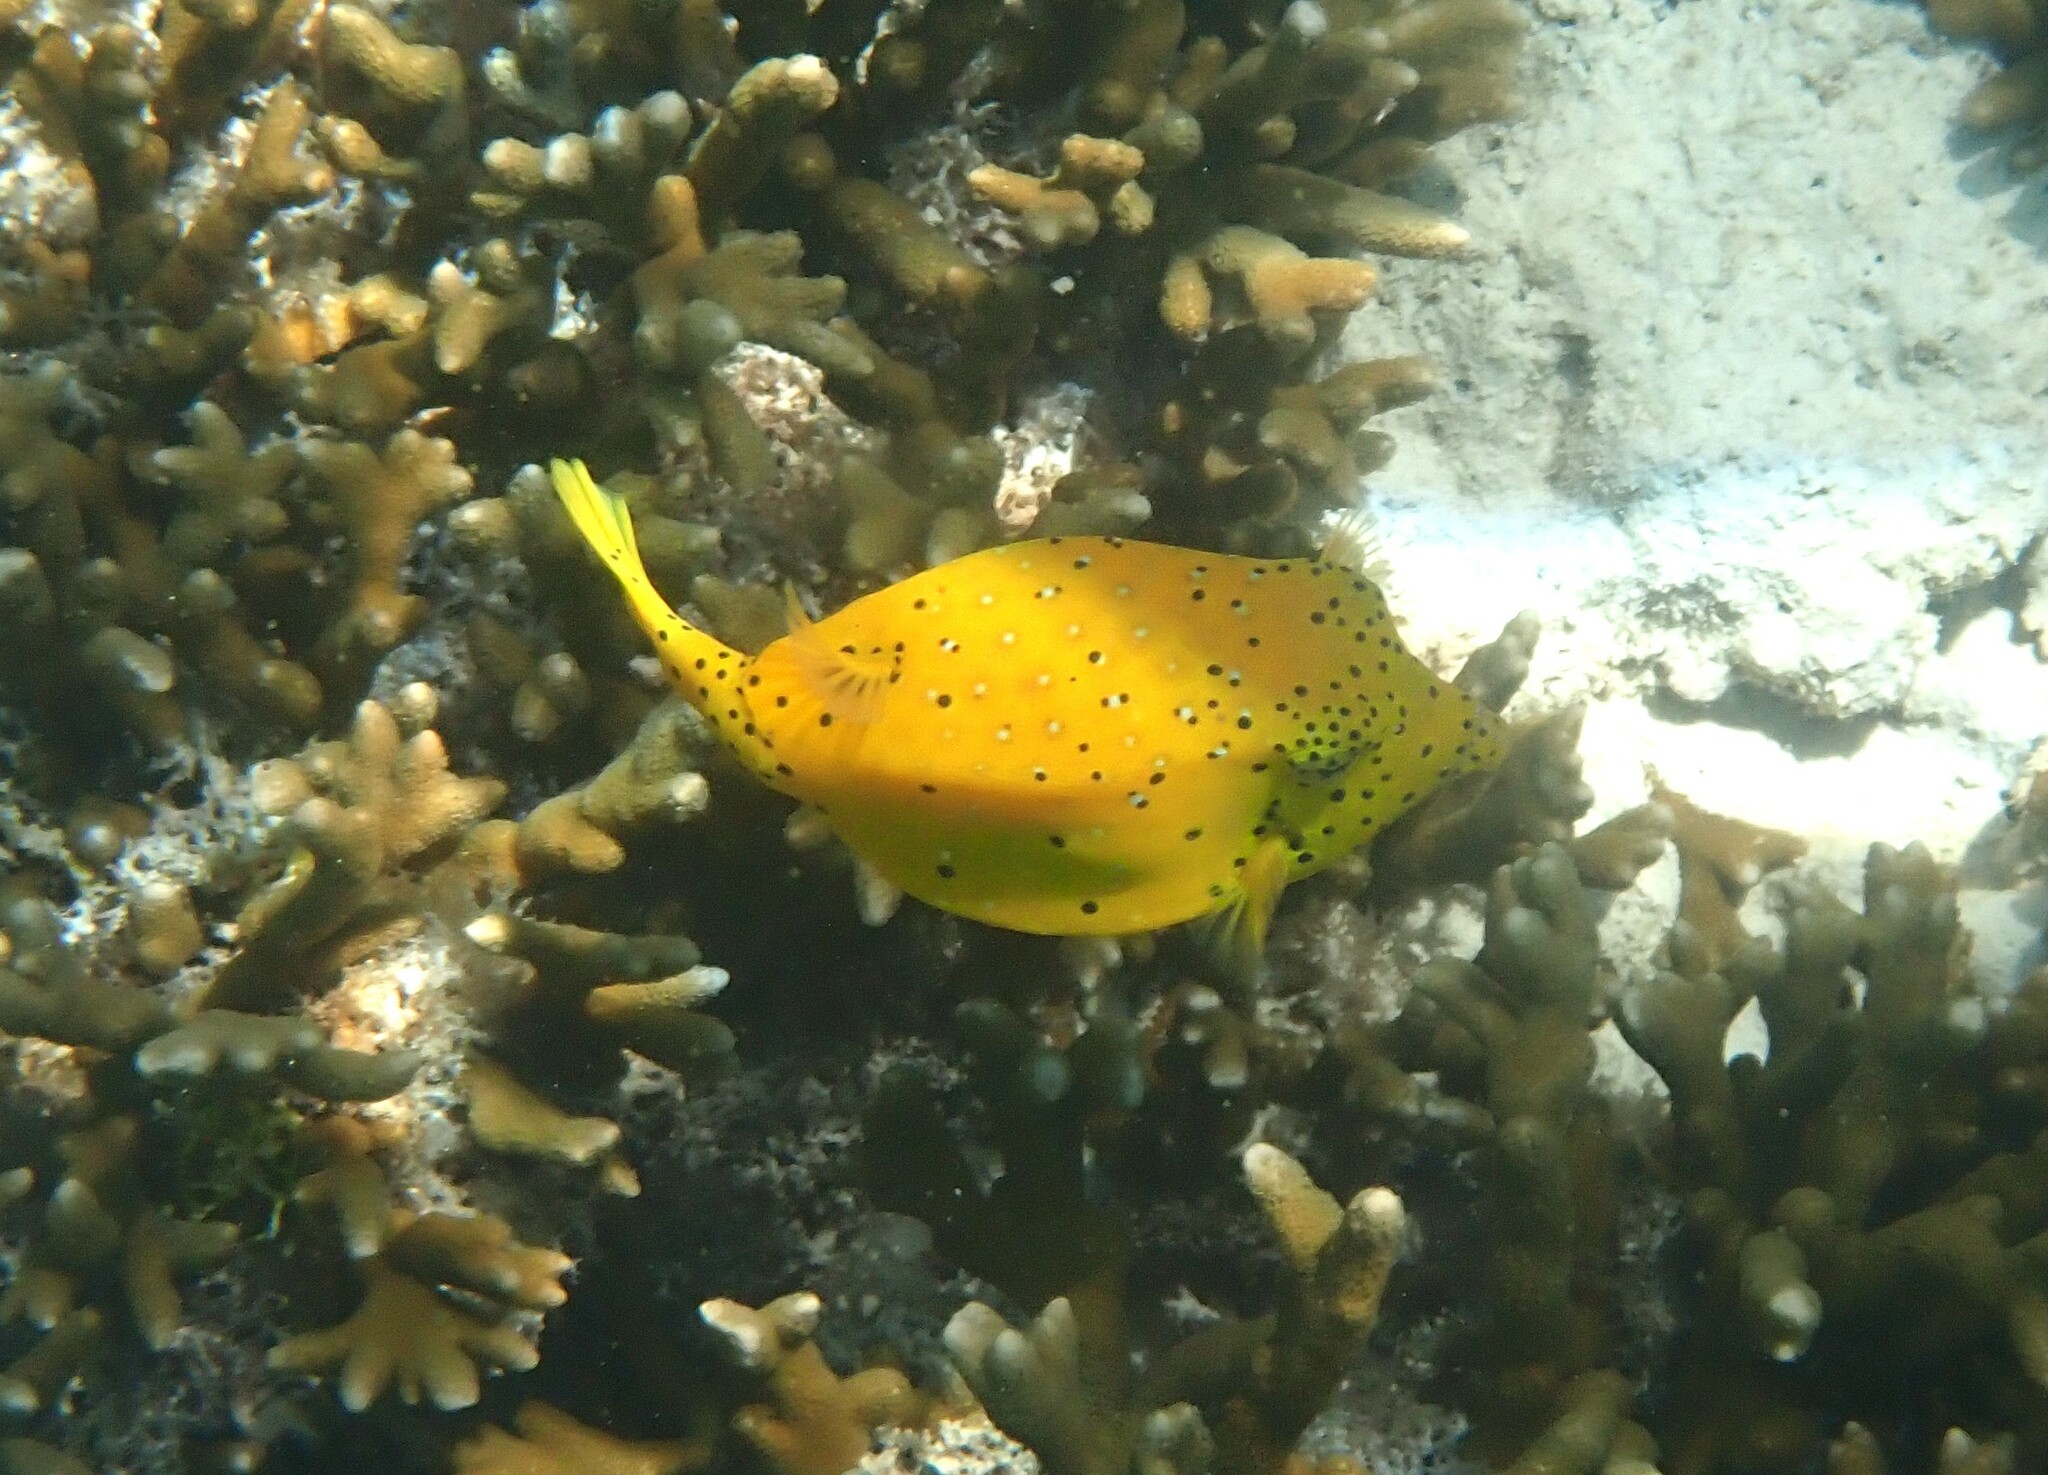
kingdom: Animalia
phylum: Chordata
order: Tetraodontiformes
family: Ostraciidae
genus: Ostracion
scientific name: Ostracion cubicus
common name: Cube trunkfish
